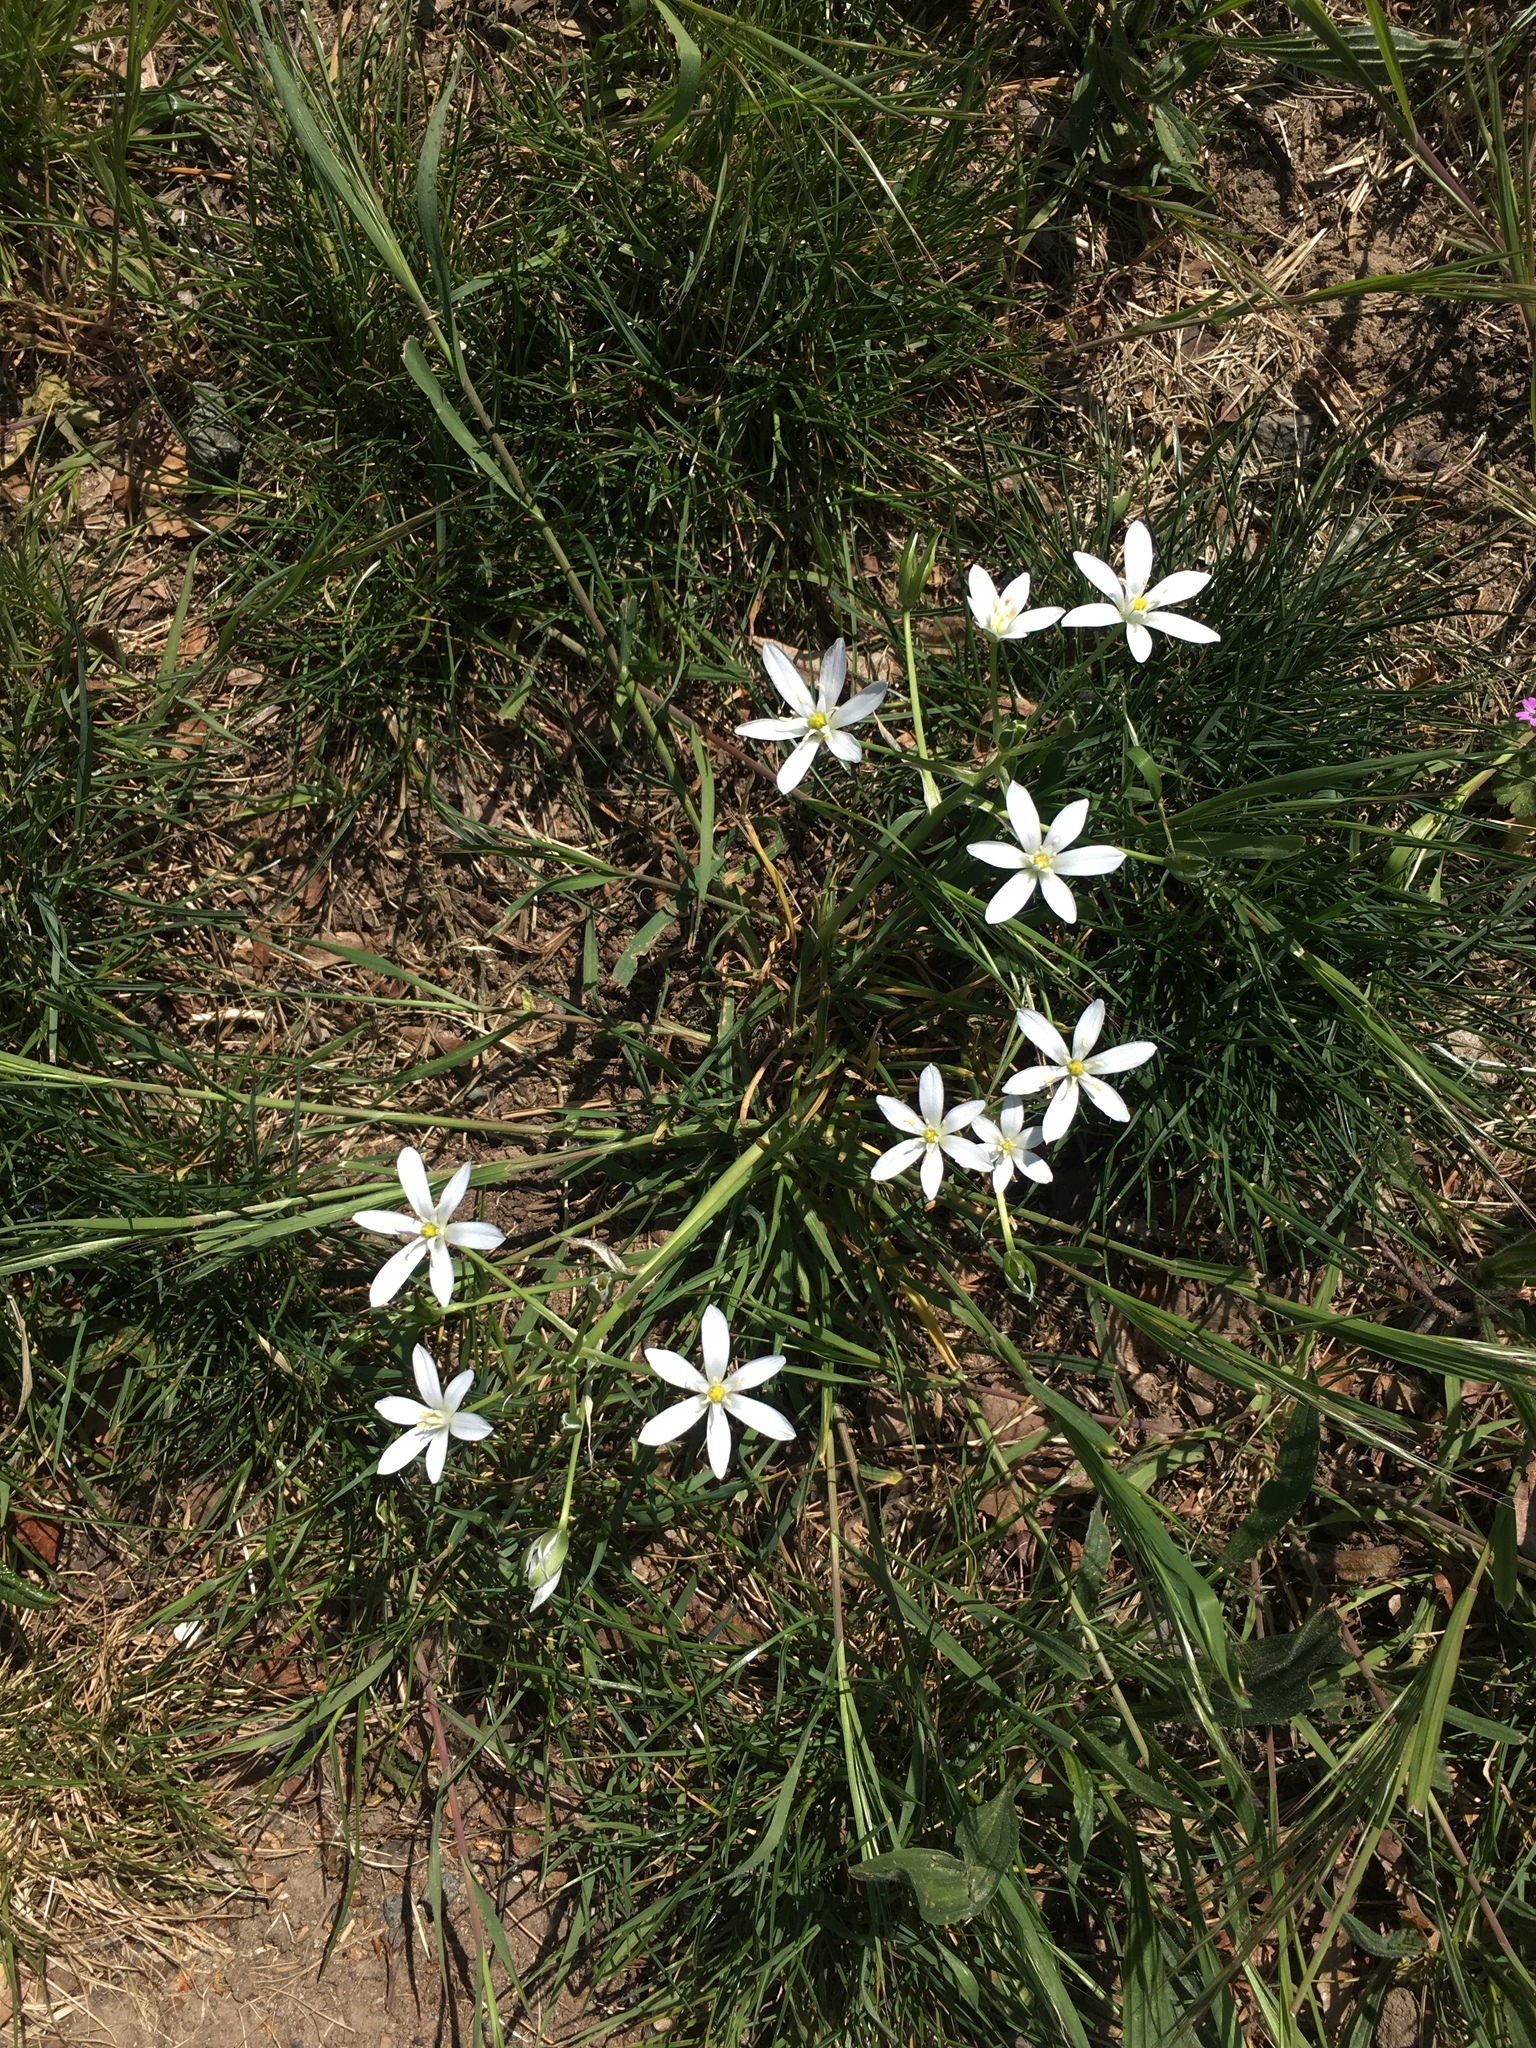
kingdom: Plantae
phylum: Tracheophyta
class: Liliopsida
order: Asparagales
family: Asparagaceae
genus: Ornithogalum
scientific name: Ornithogalum umbellatum
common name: Garden star-of-bethlehem
